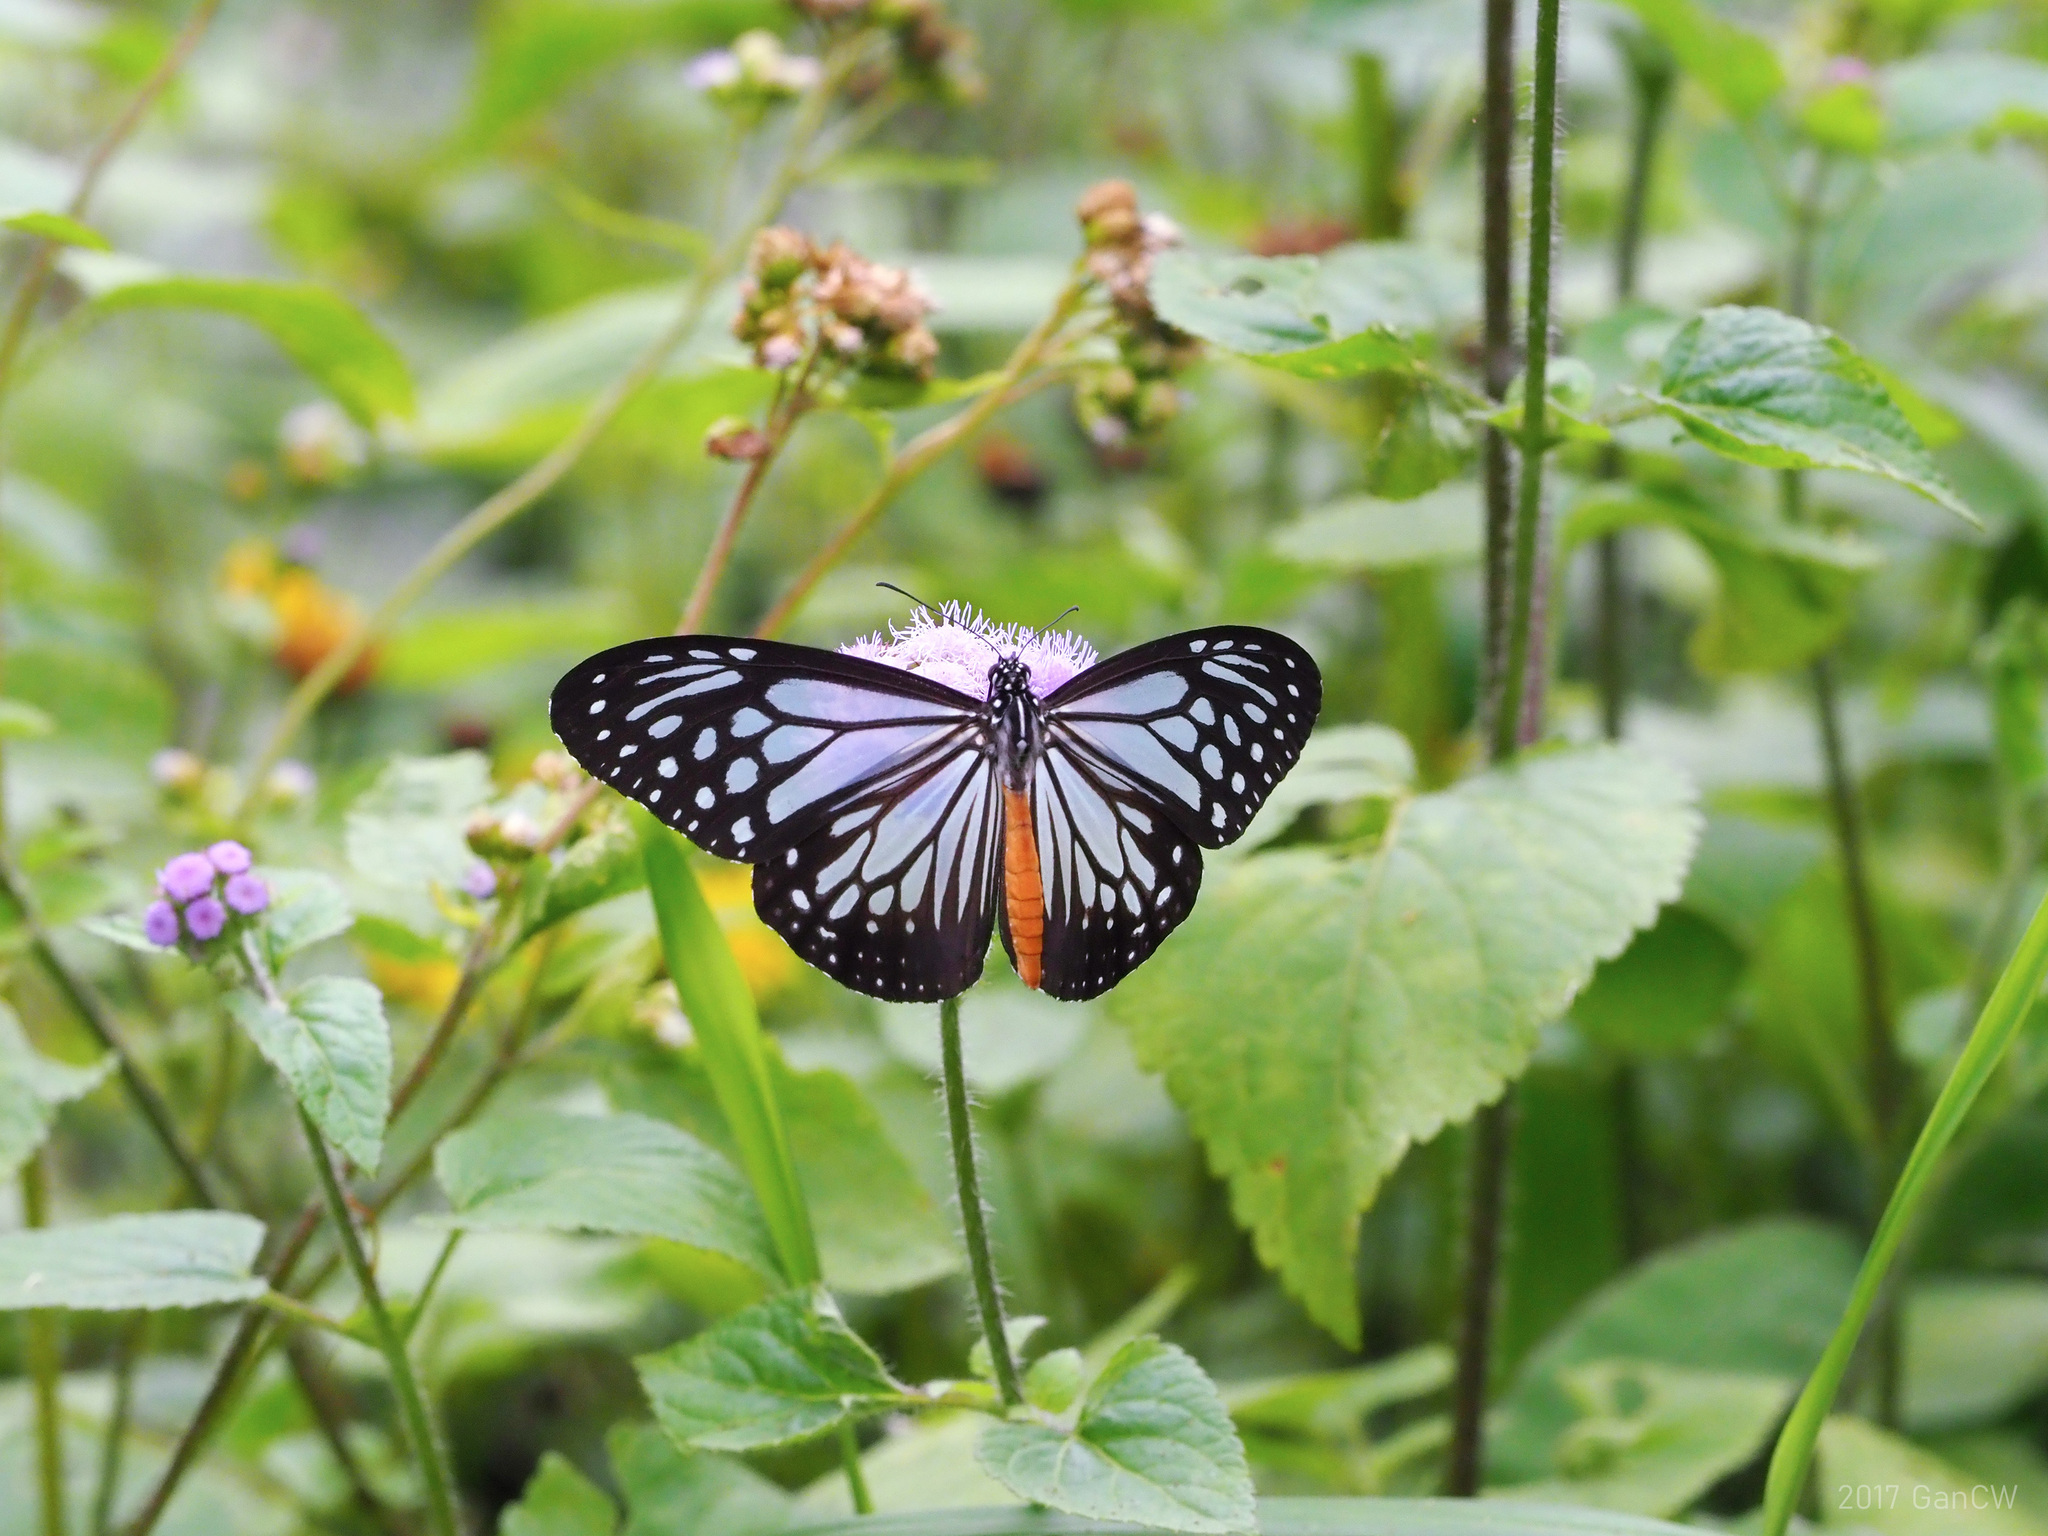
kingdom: Animalia
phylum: Arthropoda
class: Insecta
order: Lepidoptera
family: Nymphalidae
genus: Parantica
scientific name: Parantica melaneus
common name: Chocolate tiger
